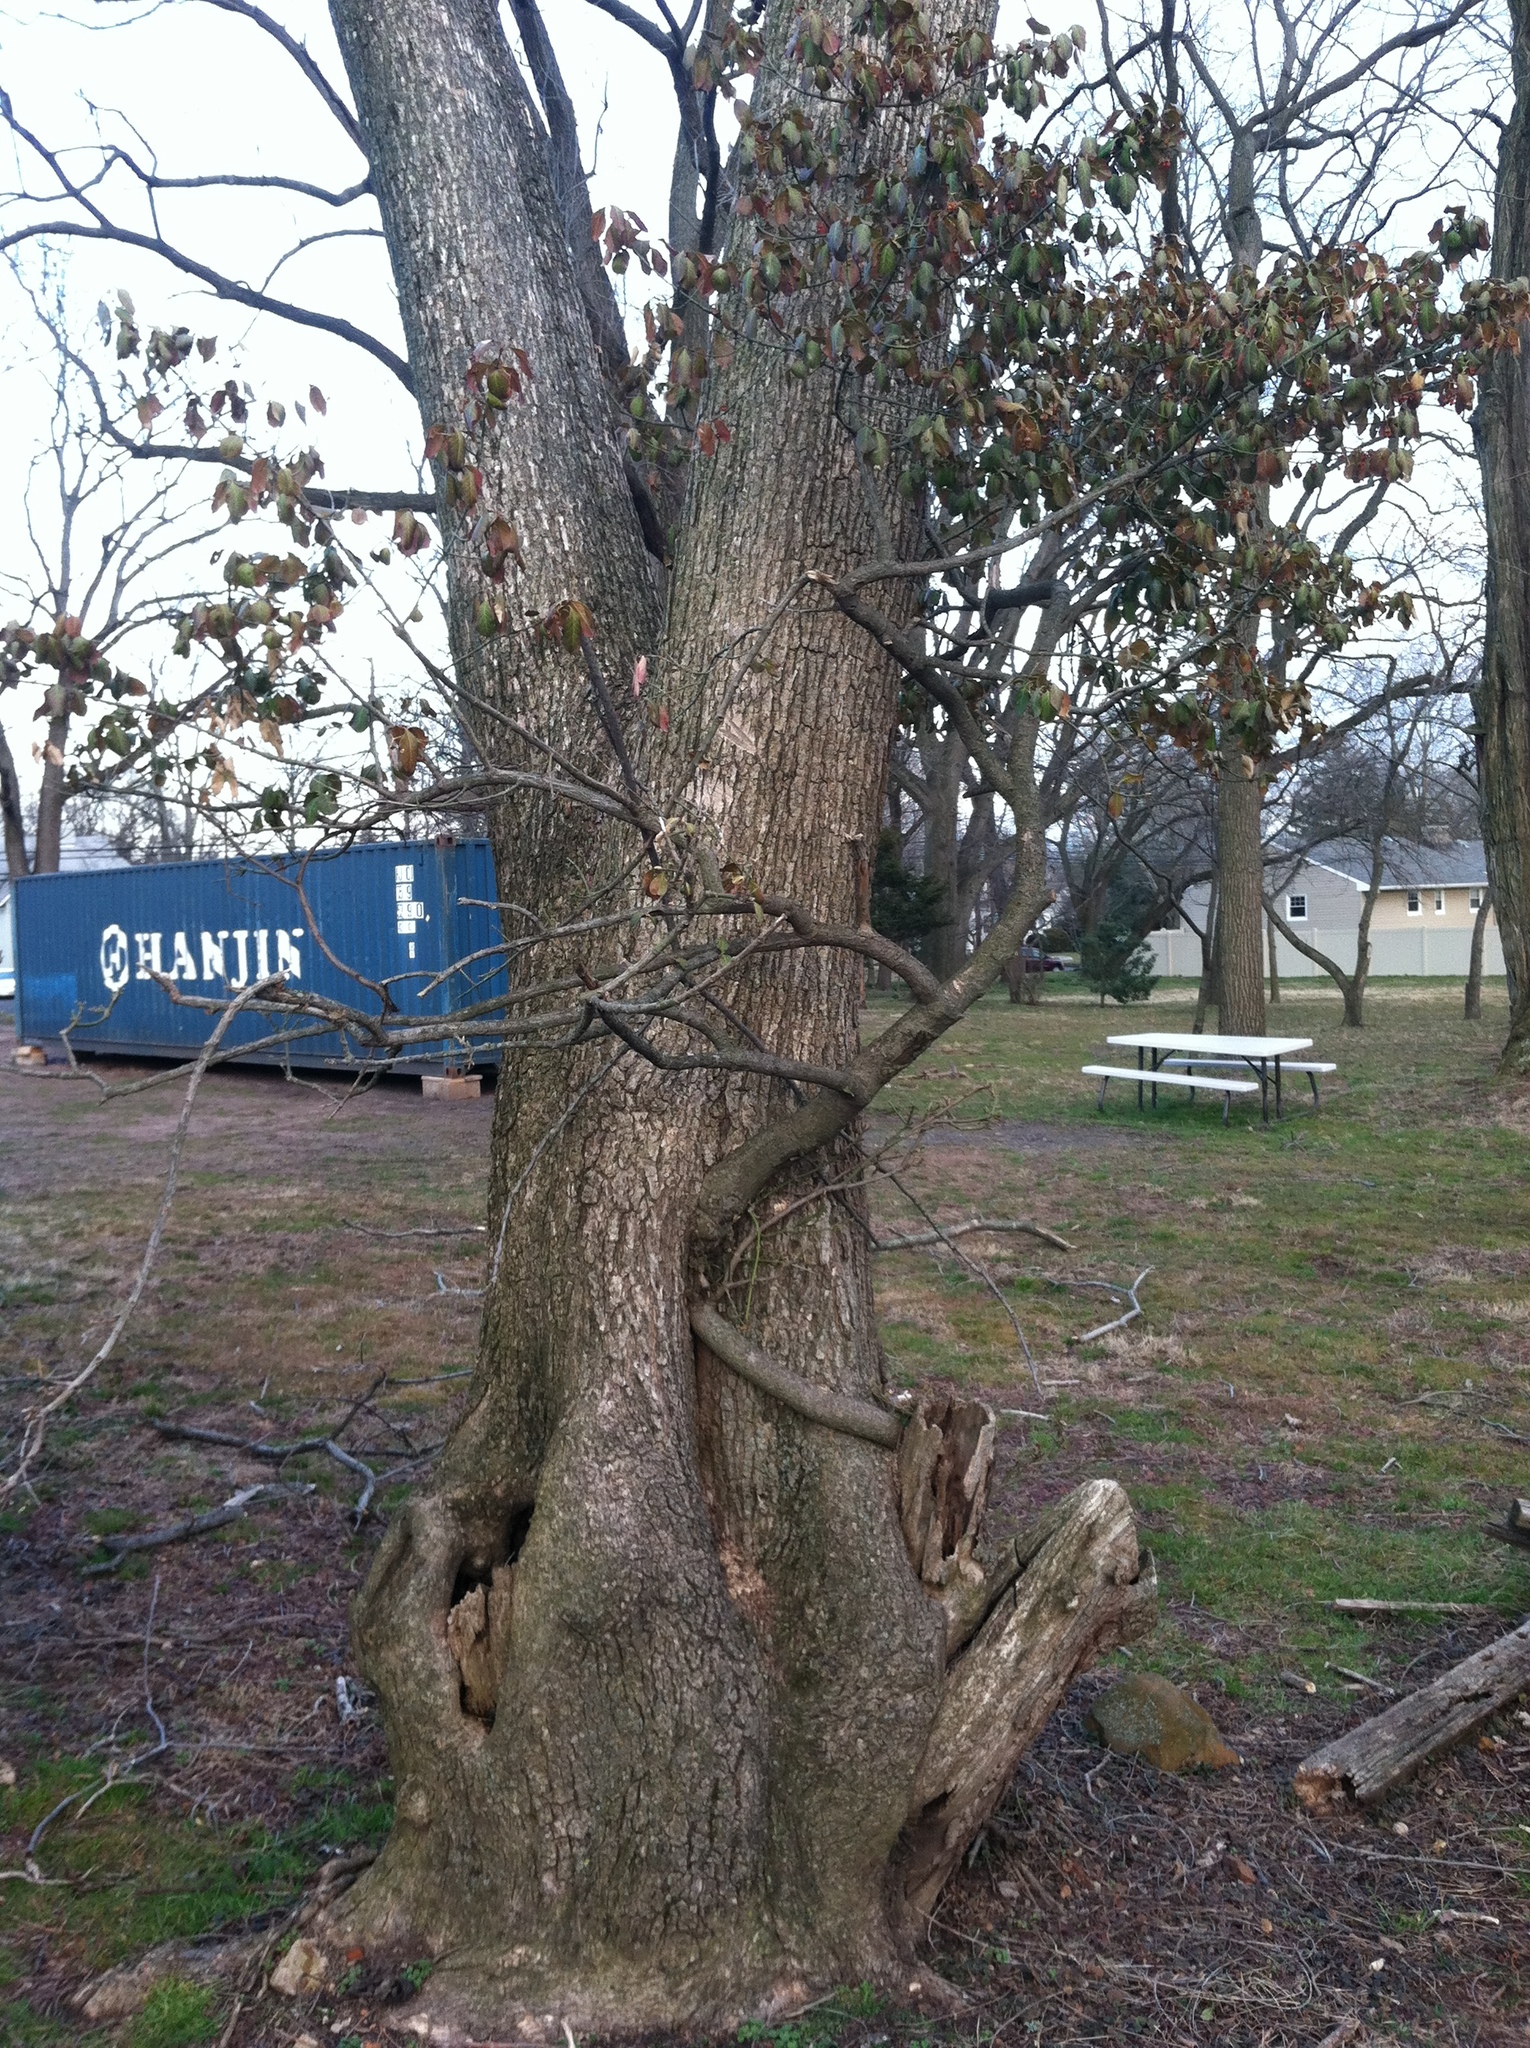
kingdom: Plantae
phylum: Tracheophyta
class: Magnoliopsida
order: Celastrales
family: Celastraceae
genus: Euonymus
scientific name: Euonymus fortunei
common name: Climbing euonymus
